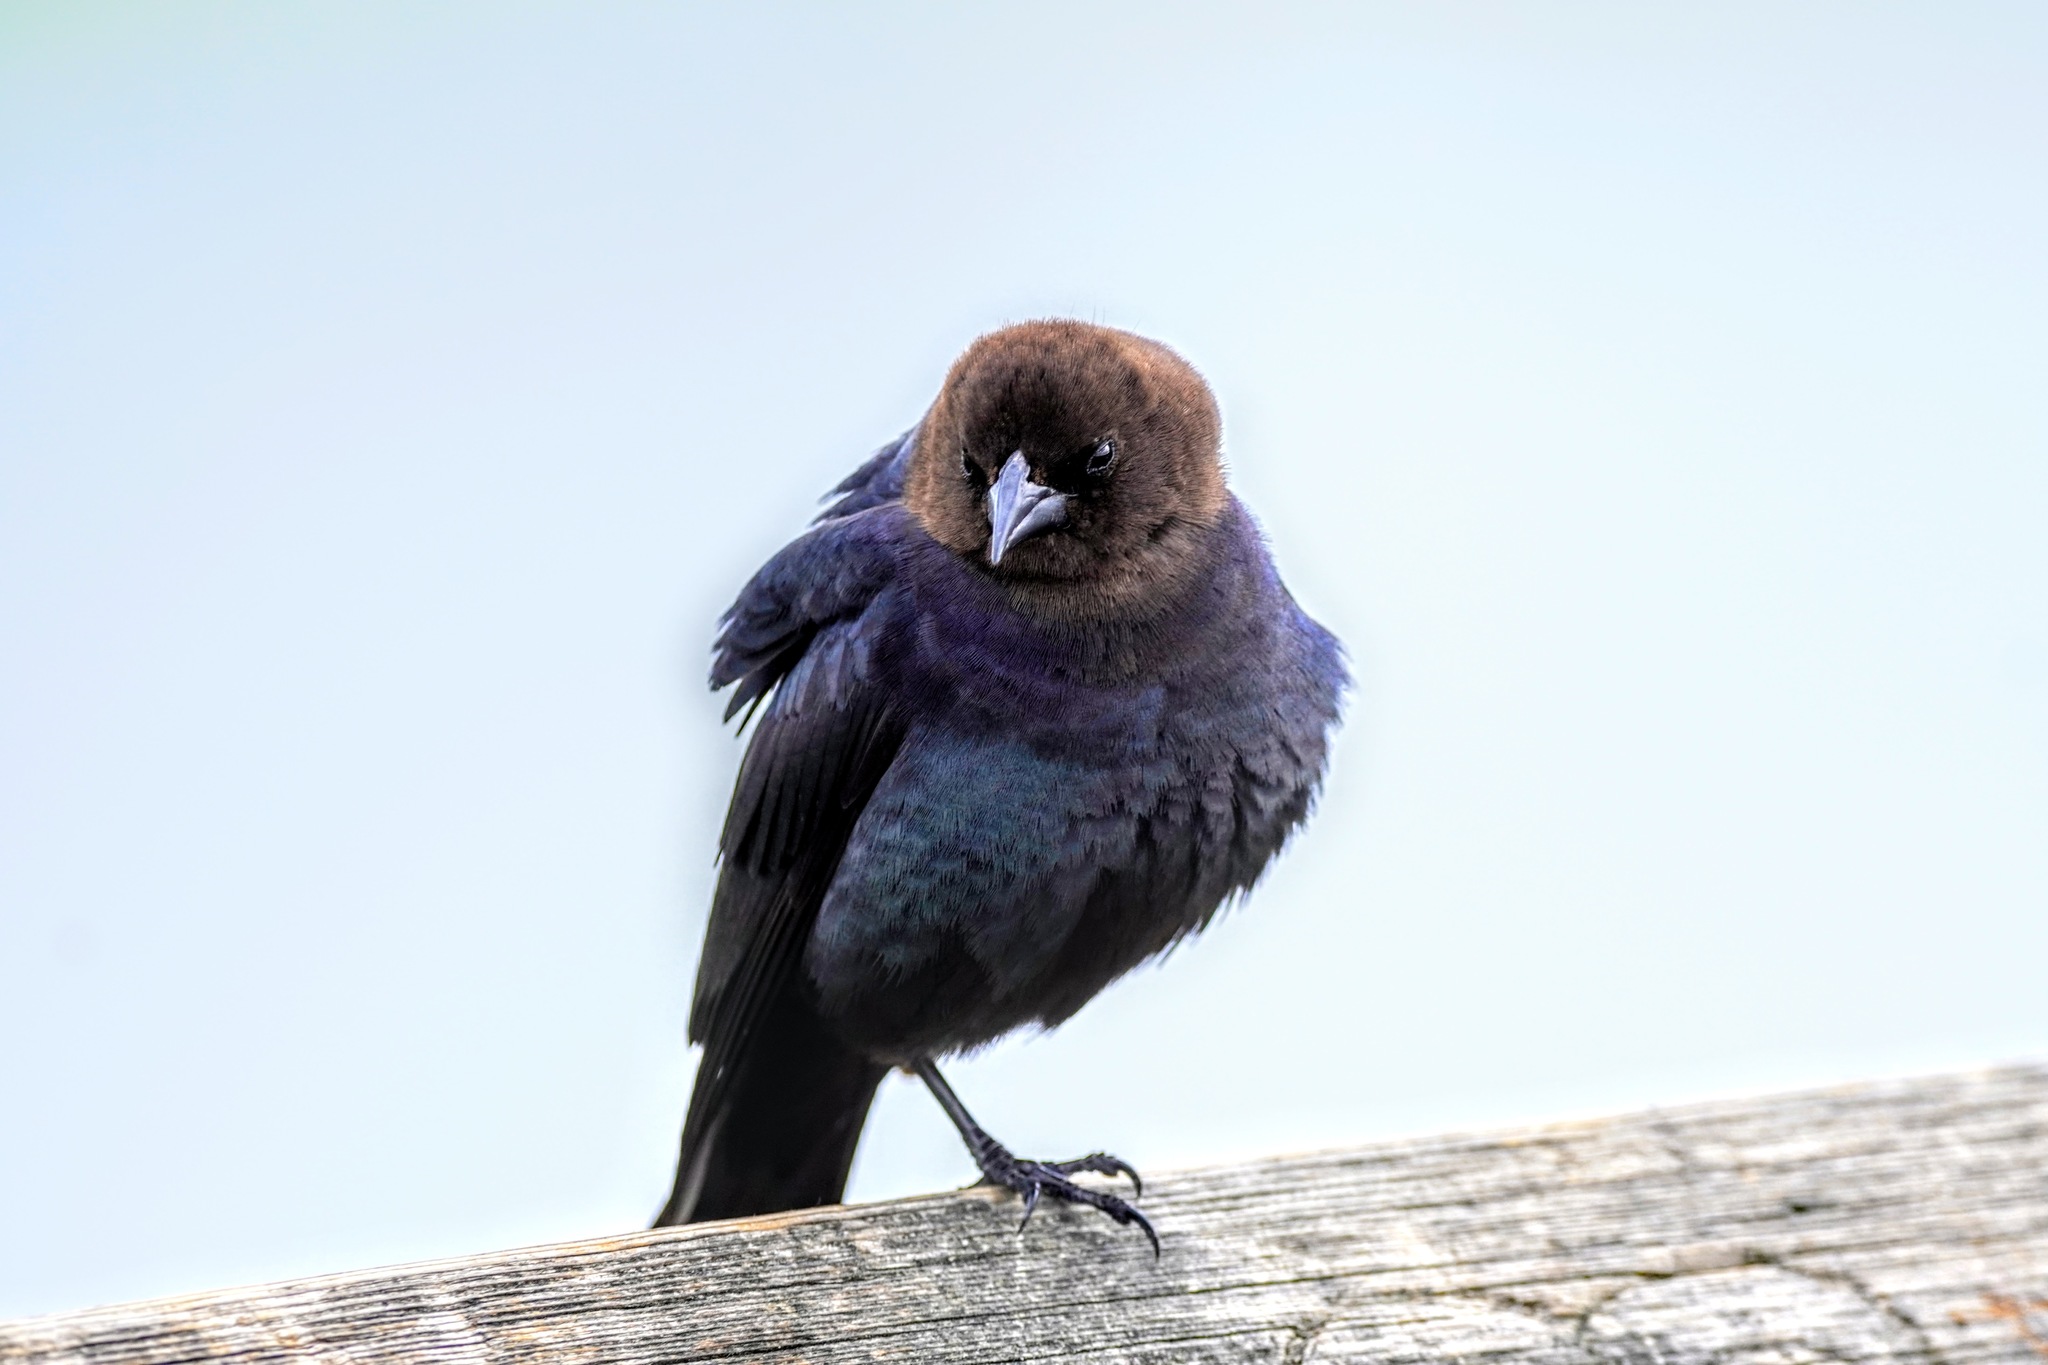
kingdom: Animalia
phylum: Chordata
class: Aves
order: Passeriformes
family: Icteridae
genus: Molothrus
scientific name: Molothrus ater
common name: Brown-headed cowbird
